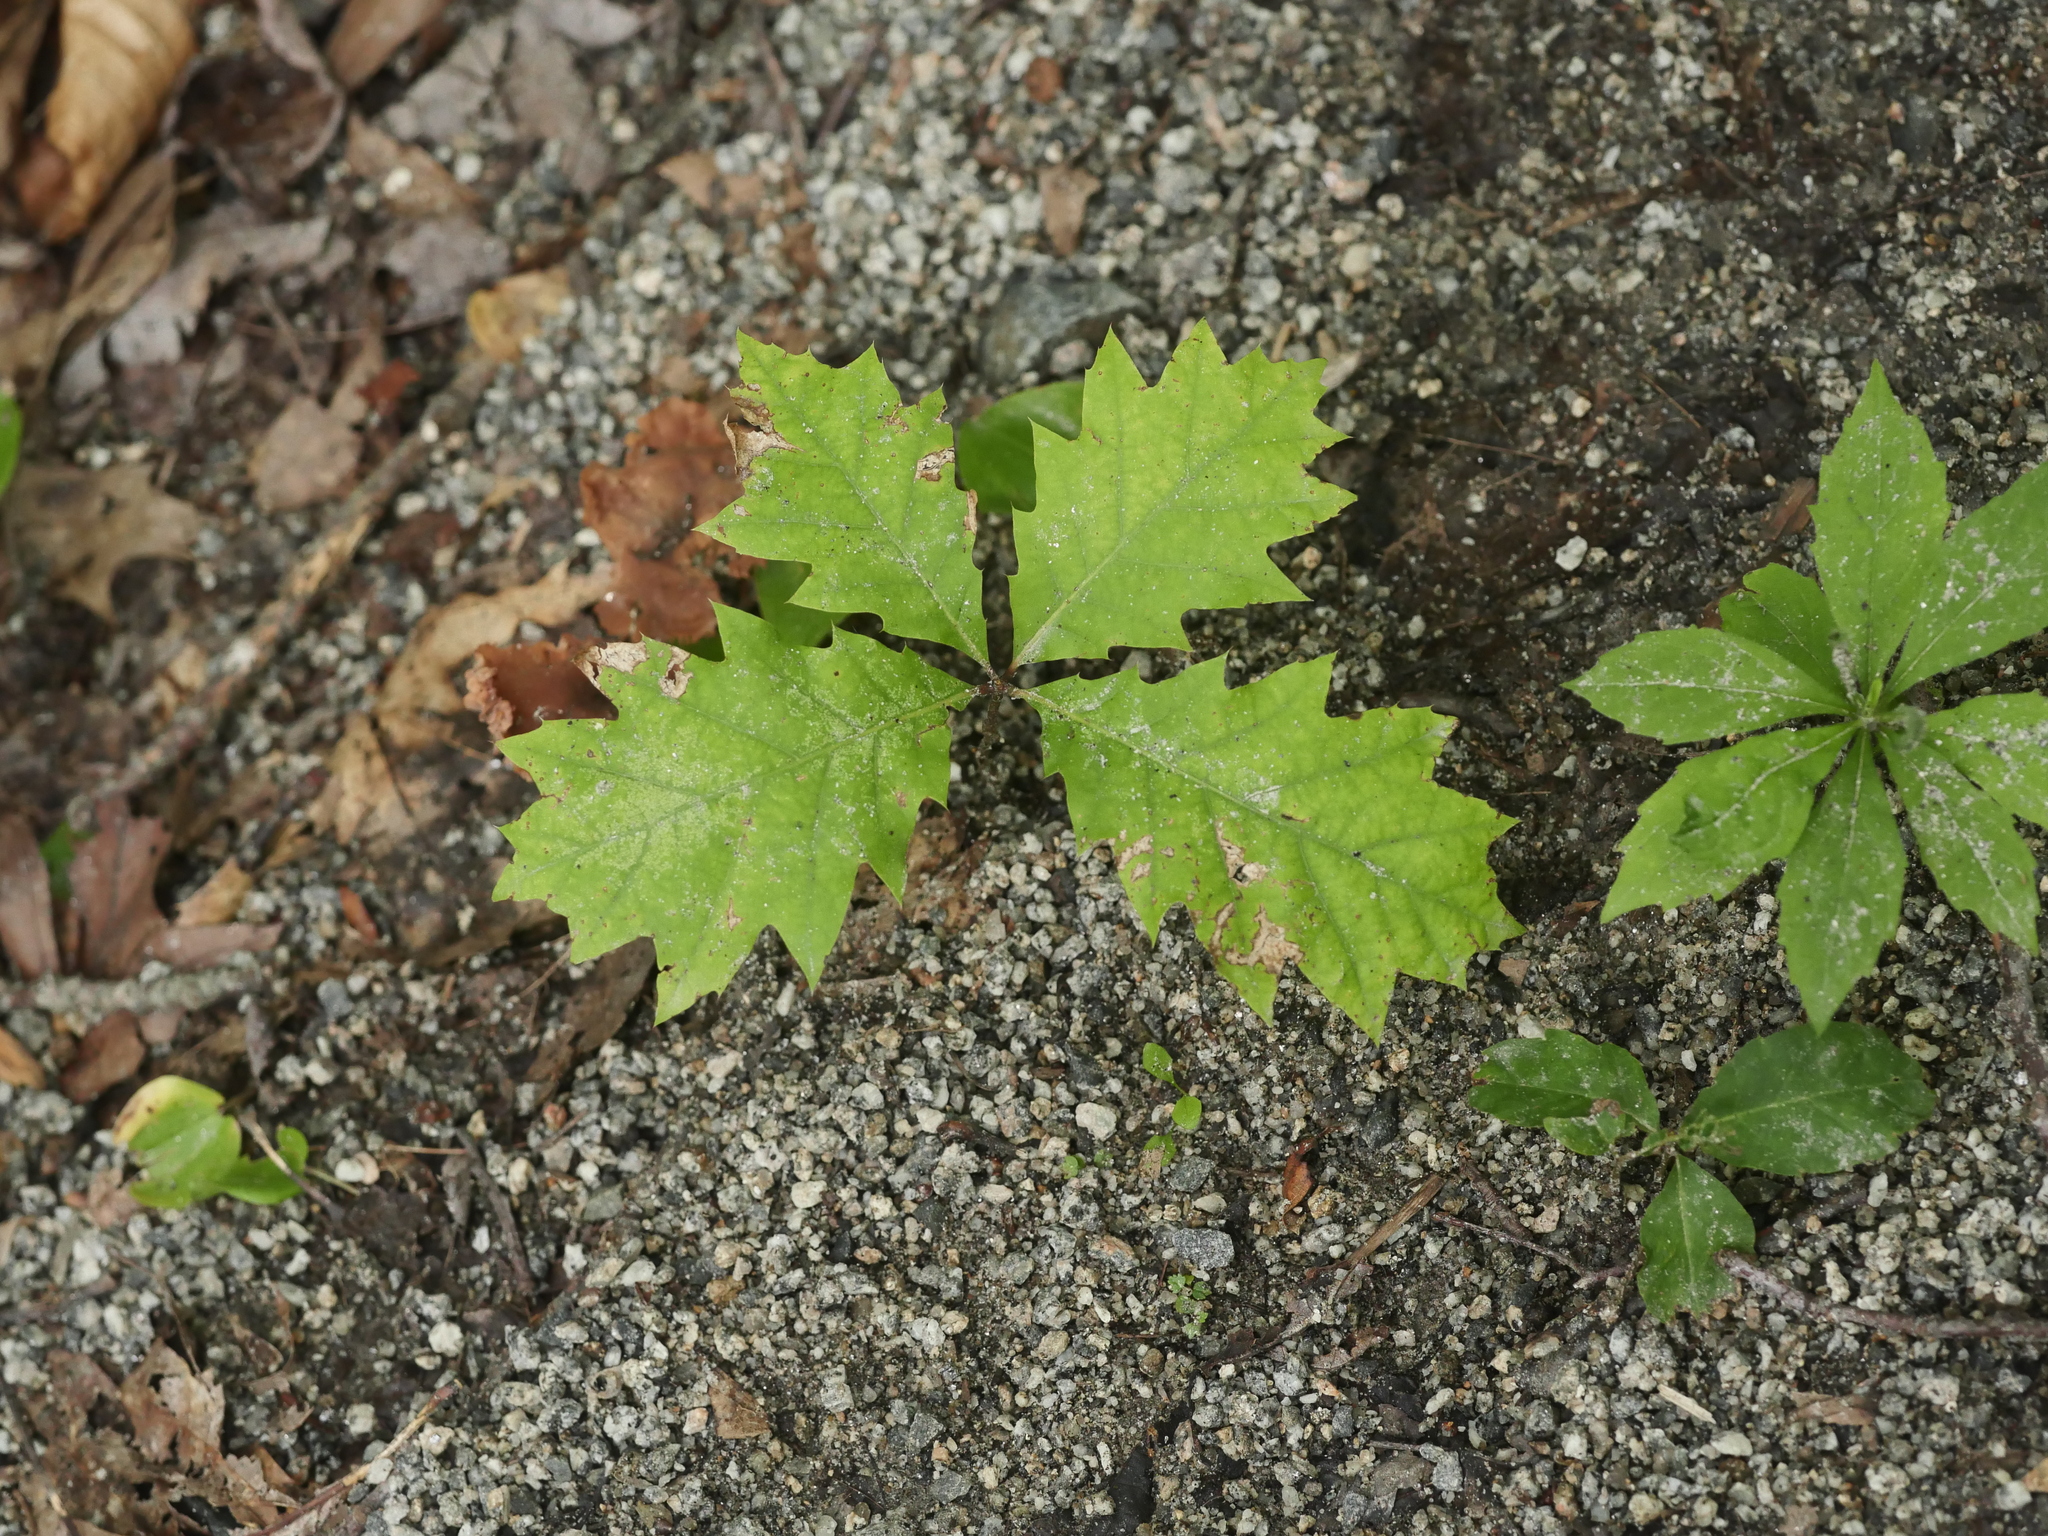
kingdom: Plantae
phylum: Tracheophyta
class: Magnoliopsida
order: Fagales
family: Fagaceae
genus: Quercus
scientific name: Quercus rubra
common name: Red oak
